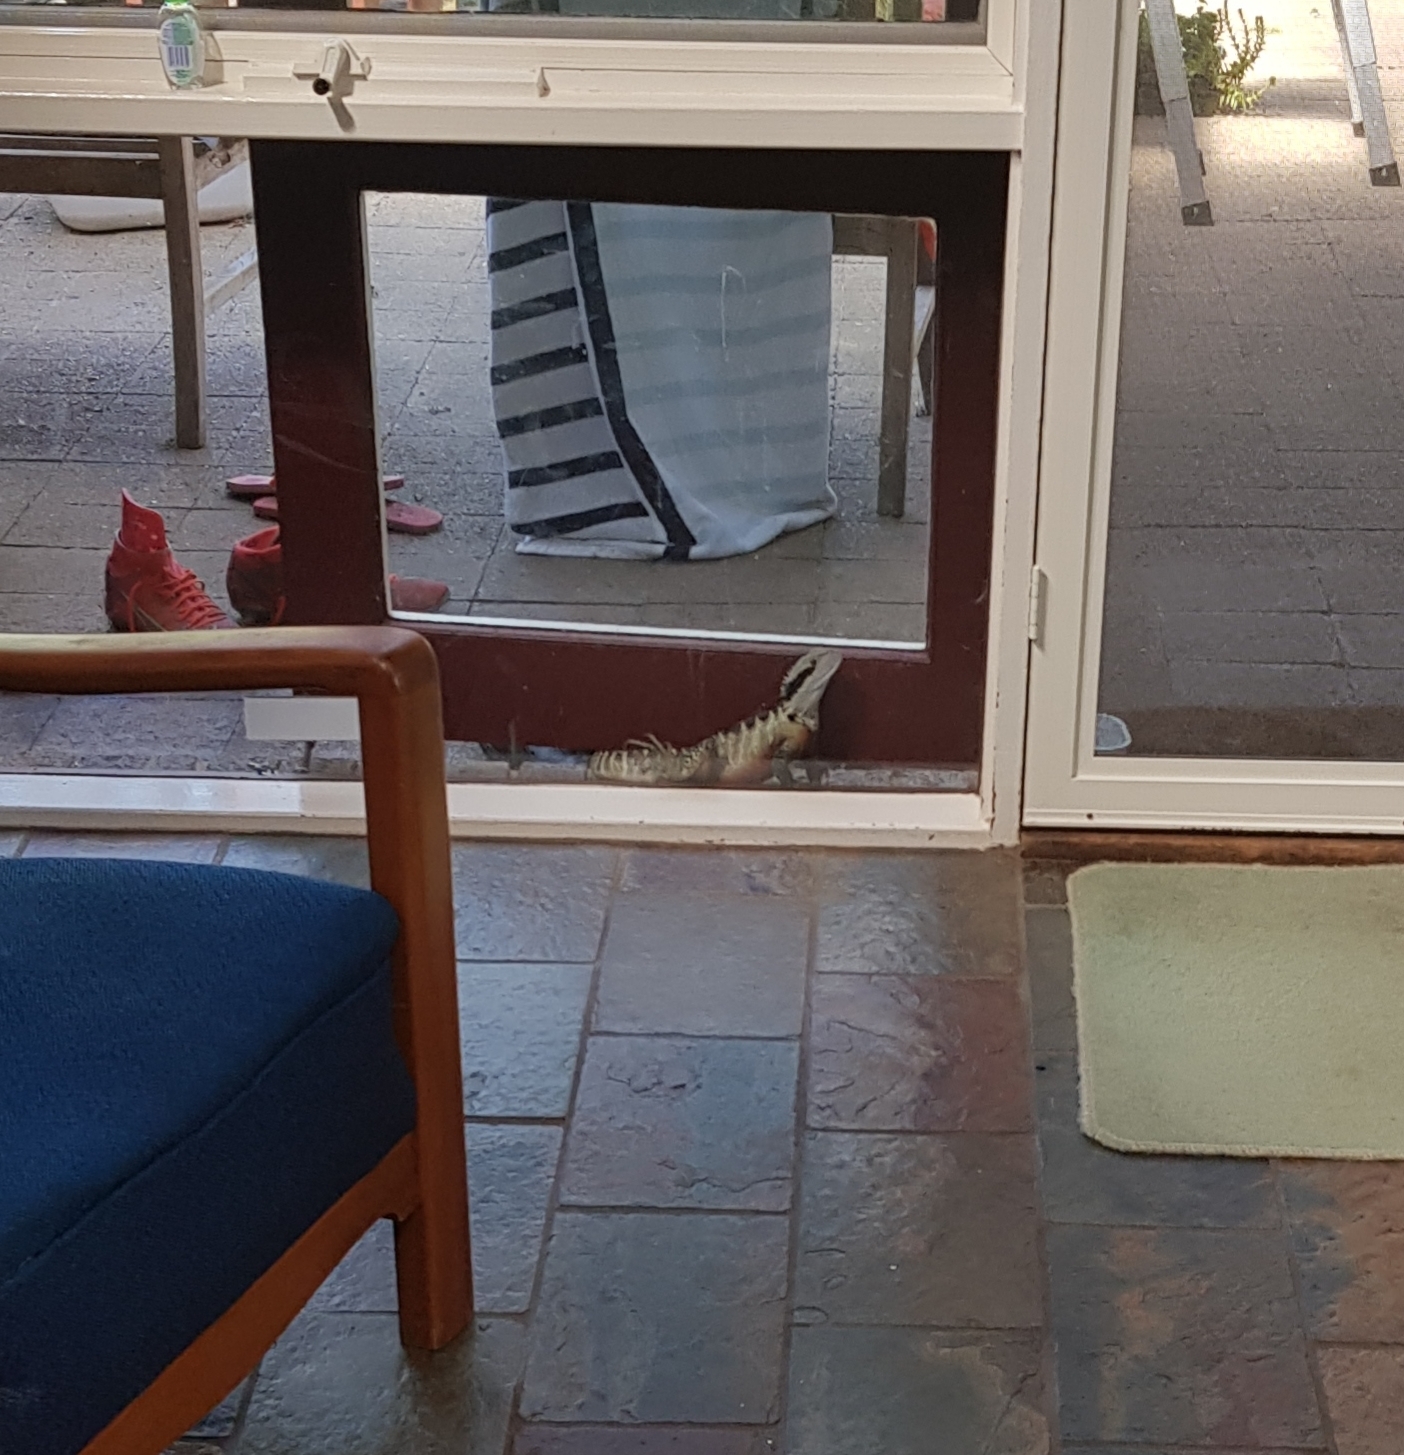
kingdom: Animalia
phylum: Chordata
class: Squamata
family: Agamidae
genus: Intellagama
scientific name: Intellagama lesueurii
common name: Eastern water dragon
